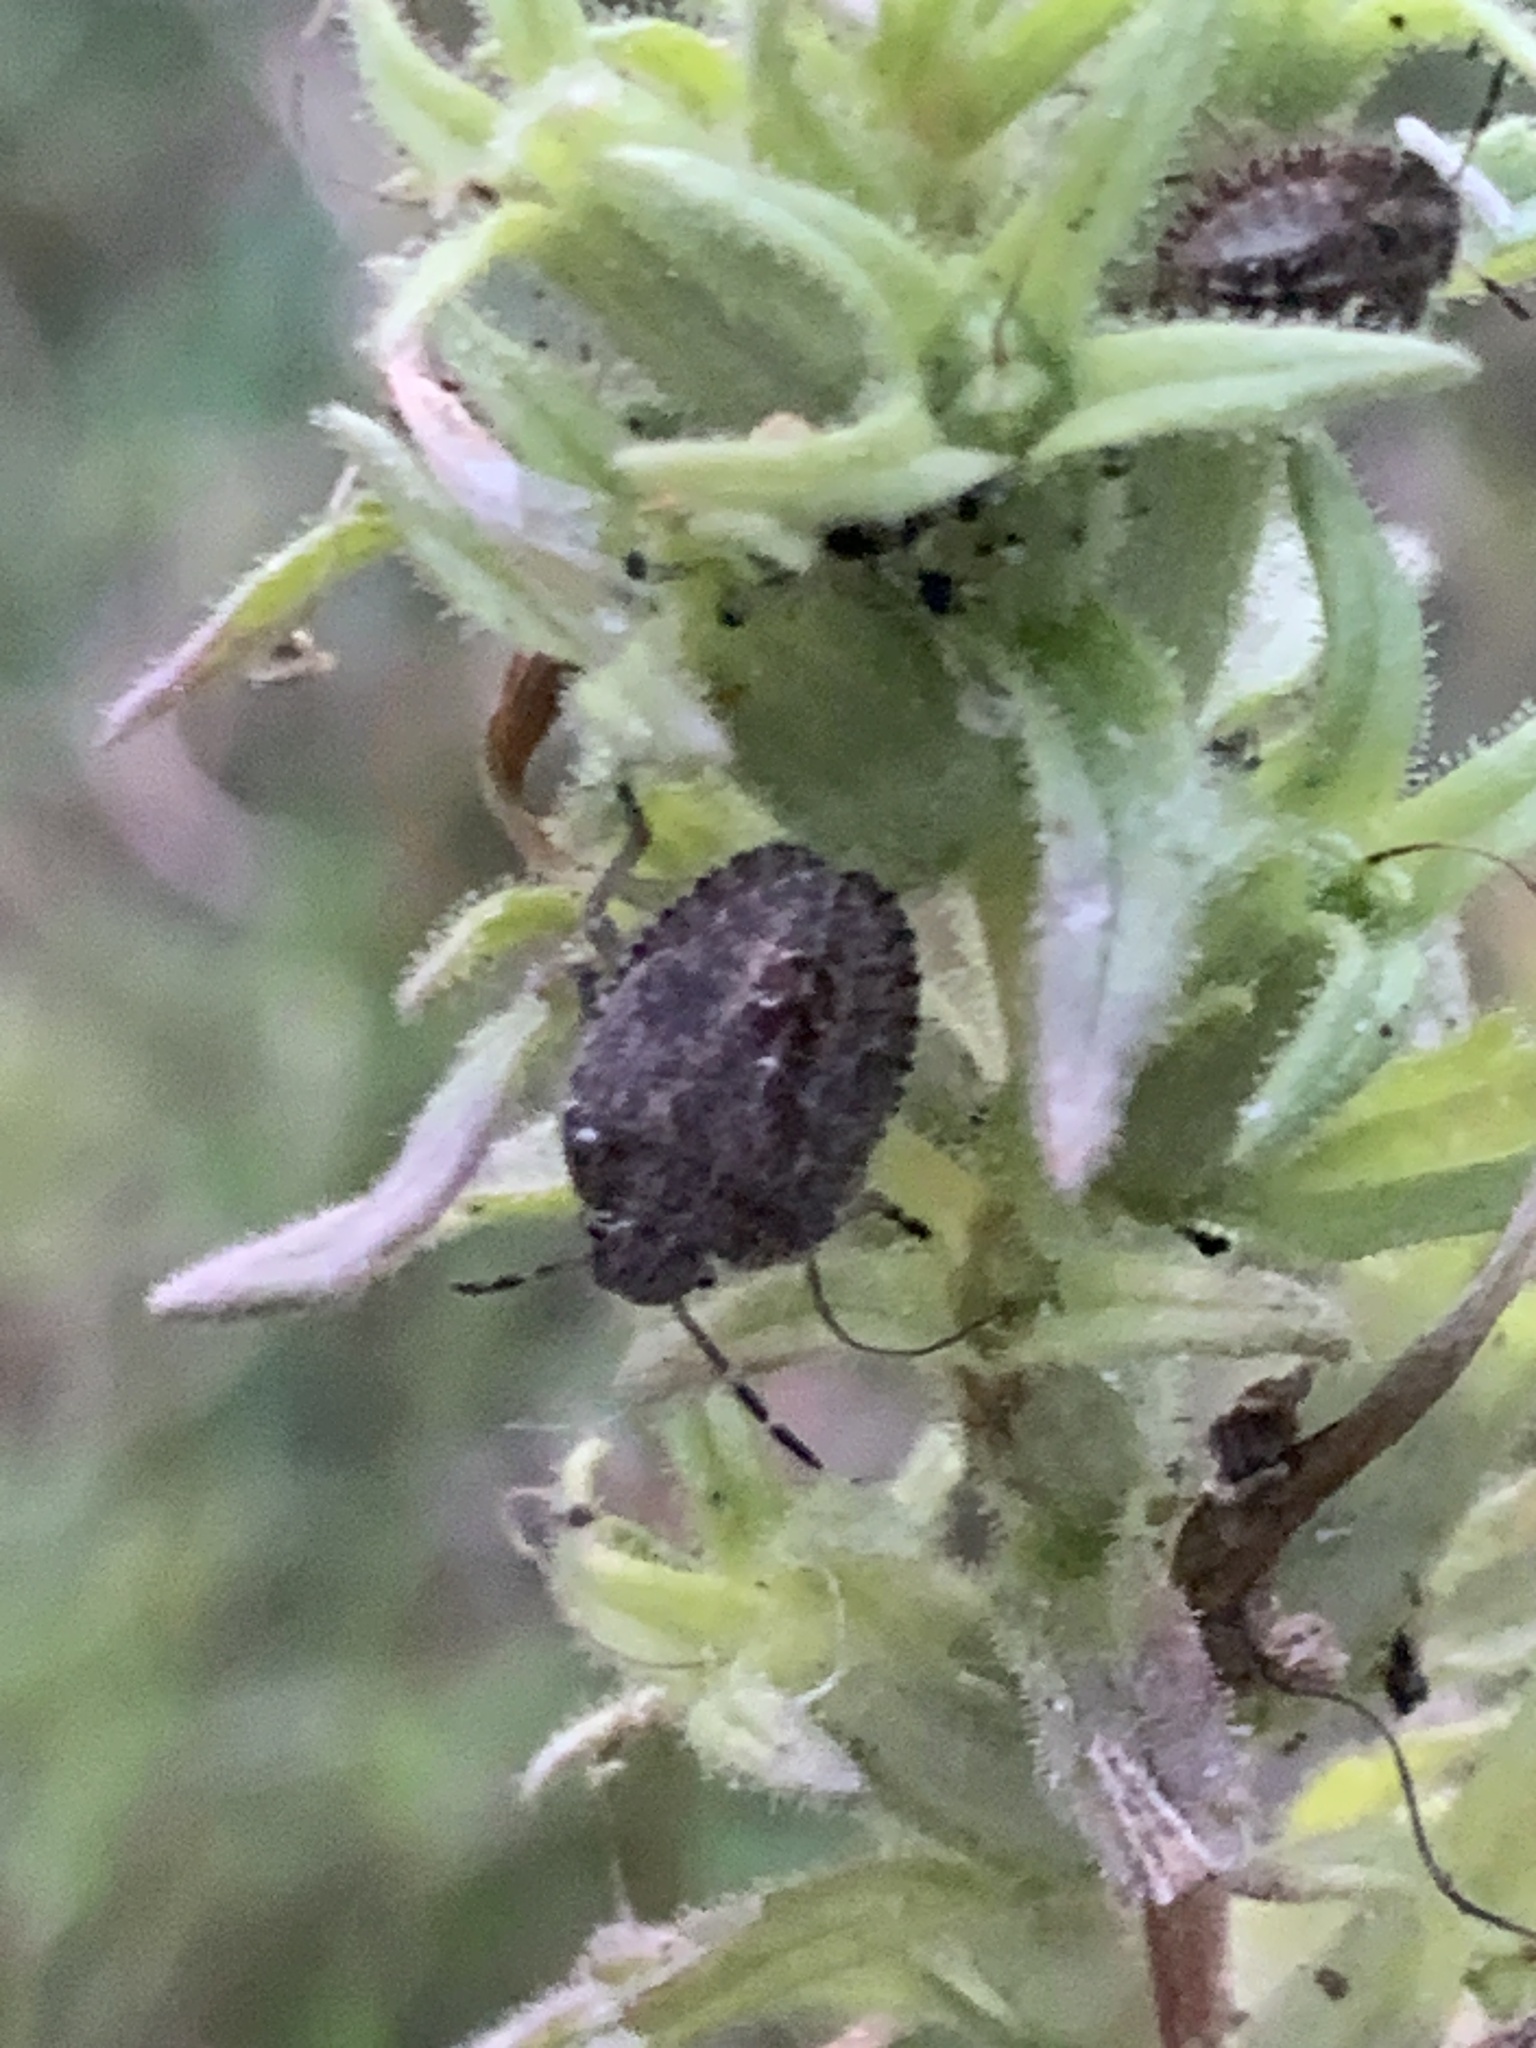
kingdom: Animalia
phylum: Arthropoda
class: Insecta
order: Hemiptera
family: Pentatomidae
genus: Dolycoris
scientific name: Dolycoris baccarum
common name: Sloe bug
